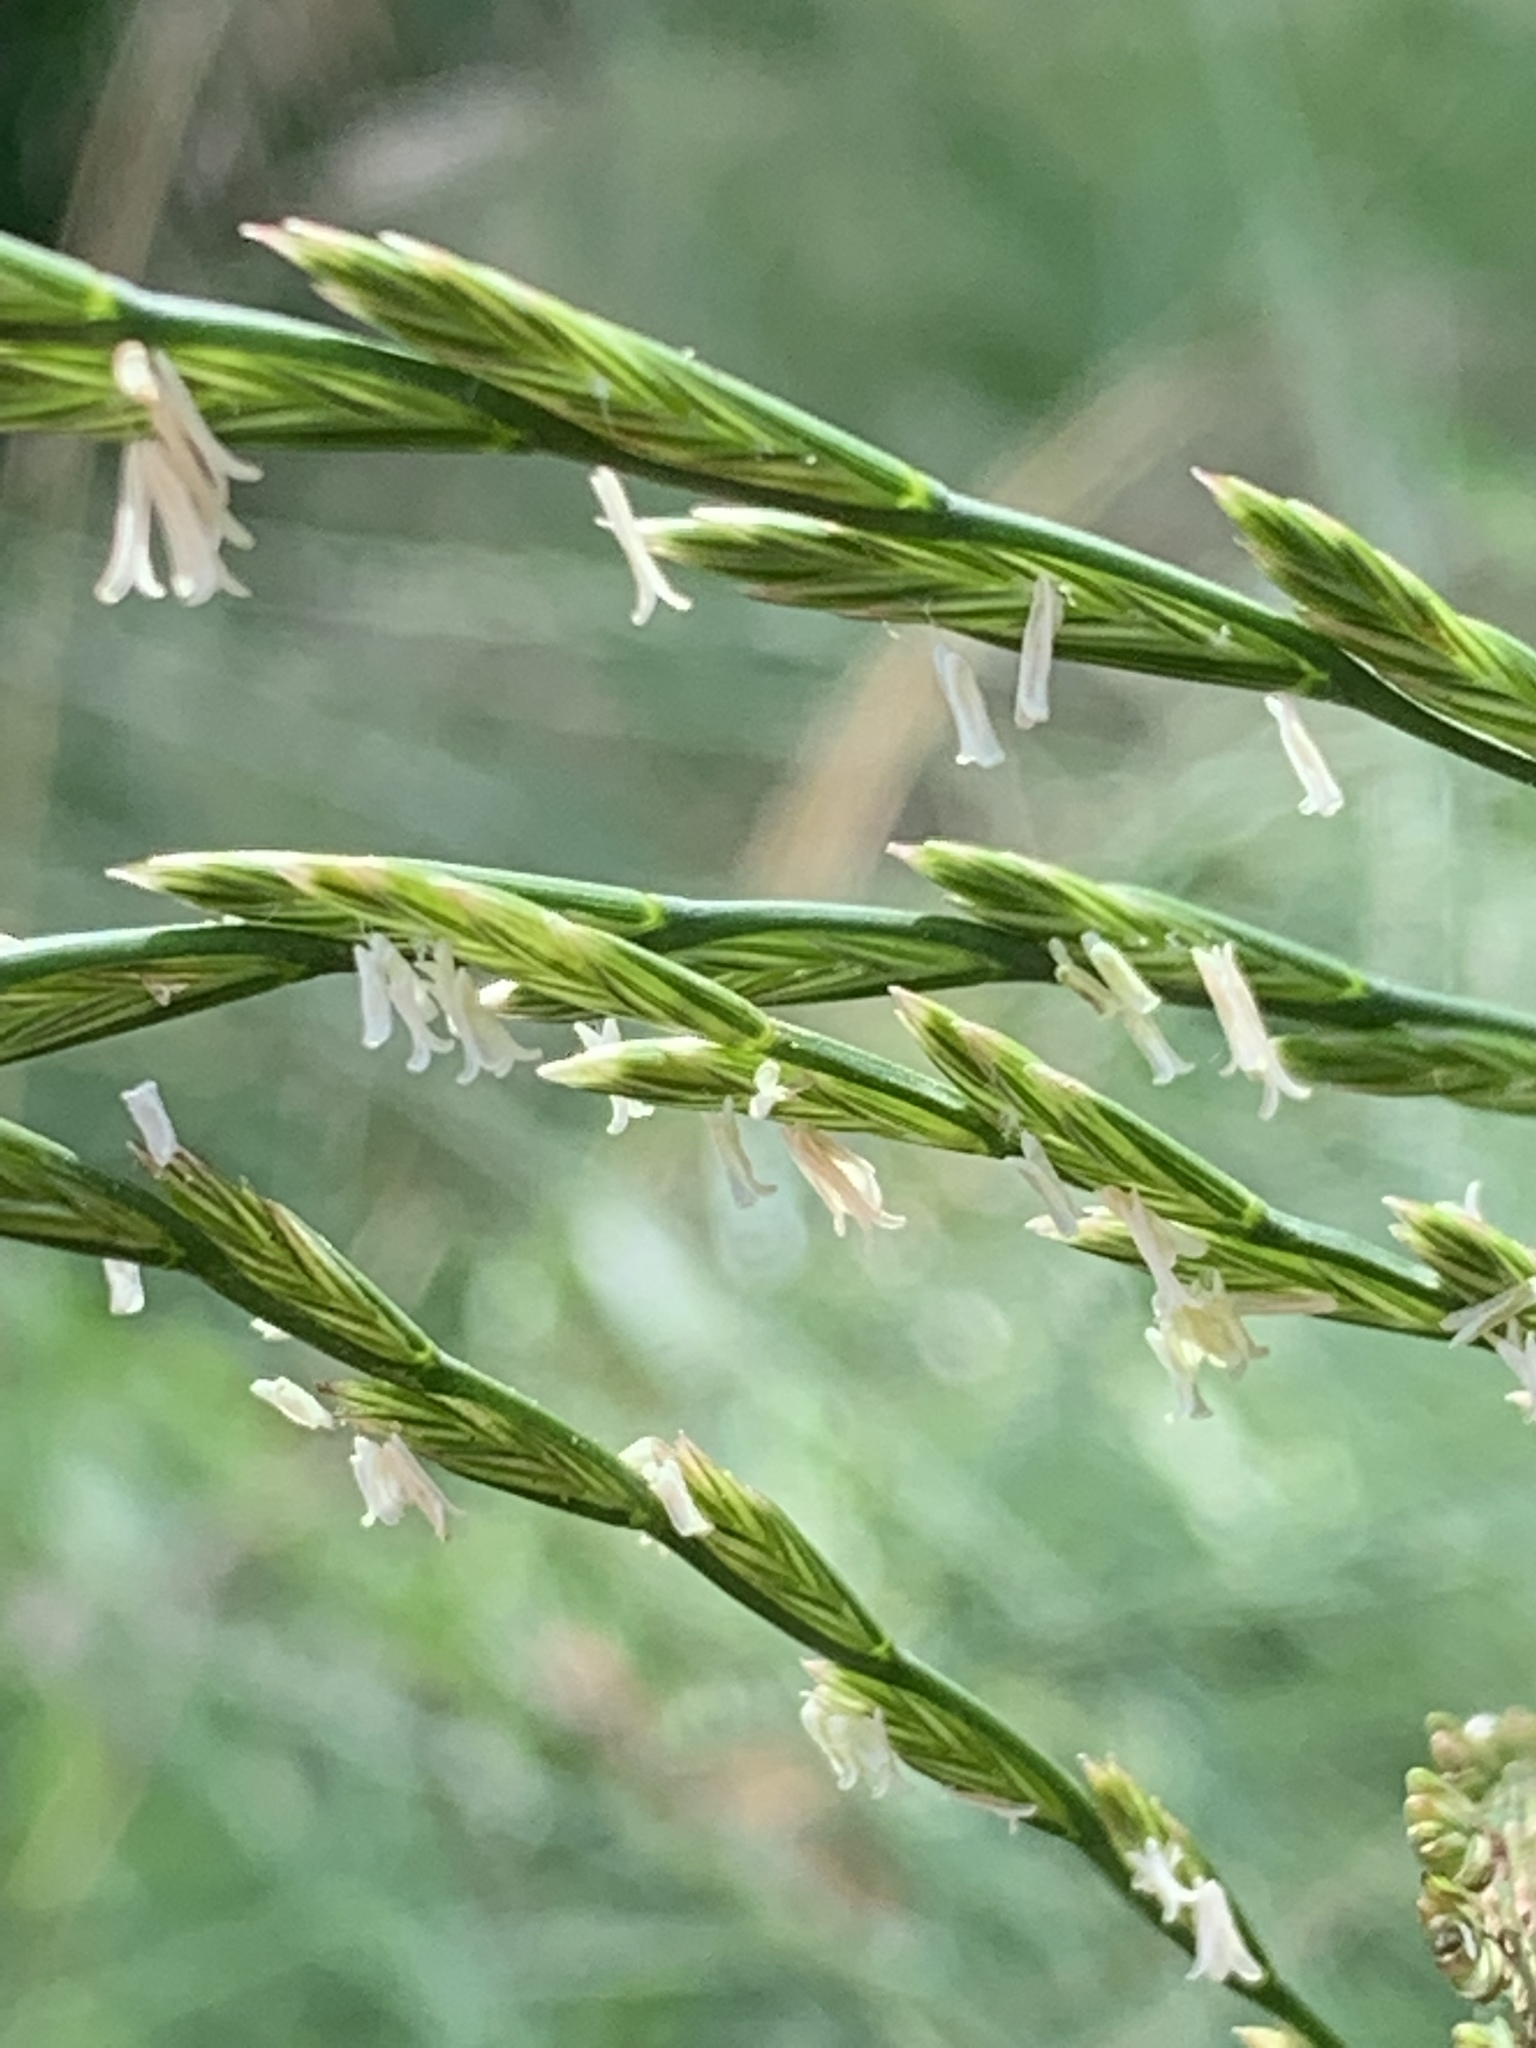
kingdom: Plantae
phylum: Tracheophyta
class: Liliopsida
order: Poales
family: Poaceae
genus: Lolium
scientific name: Lolium perenne
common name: Perennial ryegrass
